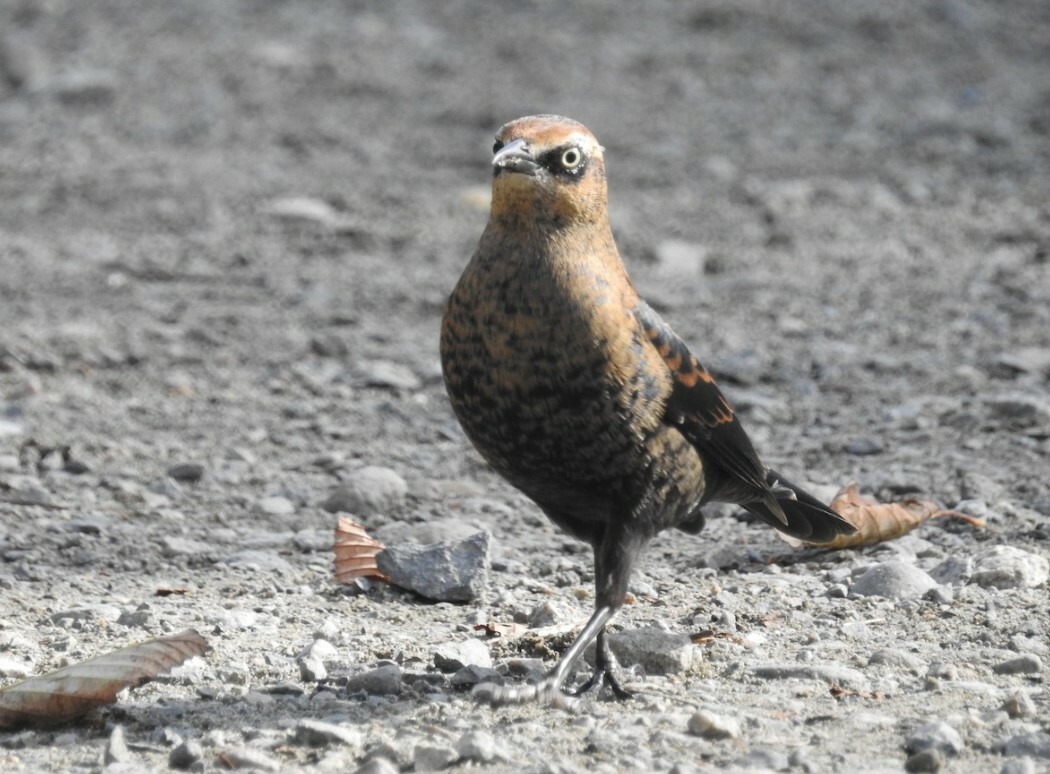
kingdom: Animalia
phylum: Chordata
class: Aves
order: Passeriformes
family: Icteridae
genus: Euphagus
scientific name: Euphagus carolinus
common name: Rusty blackbird
